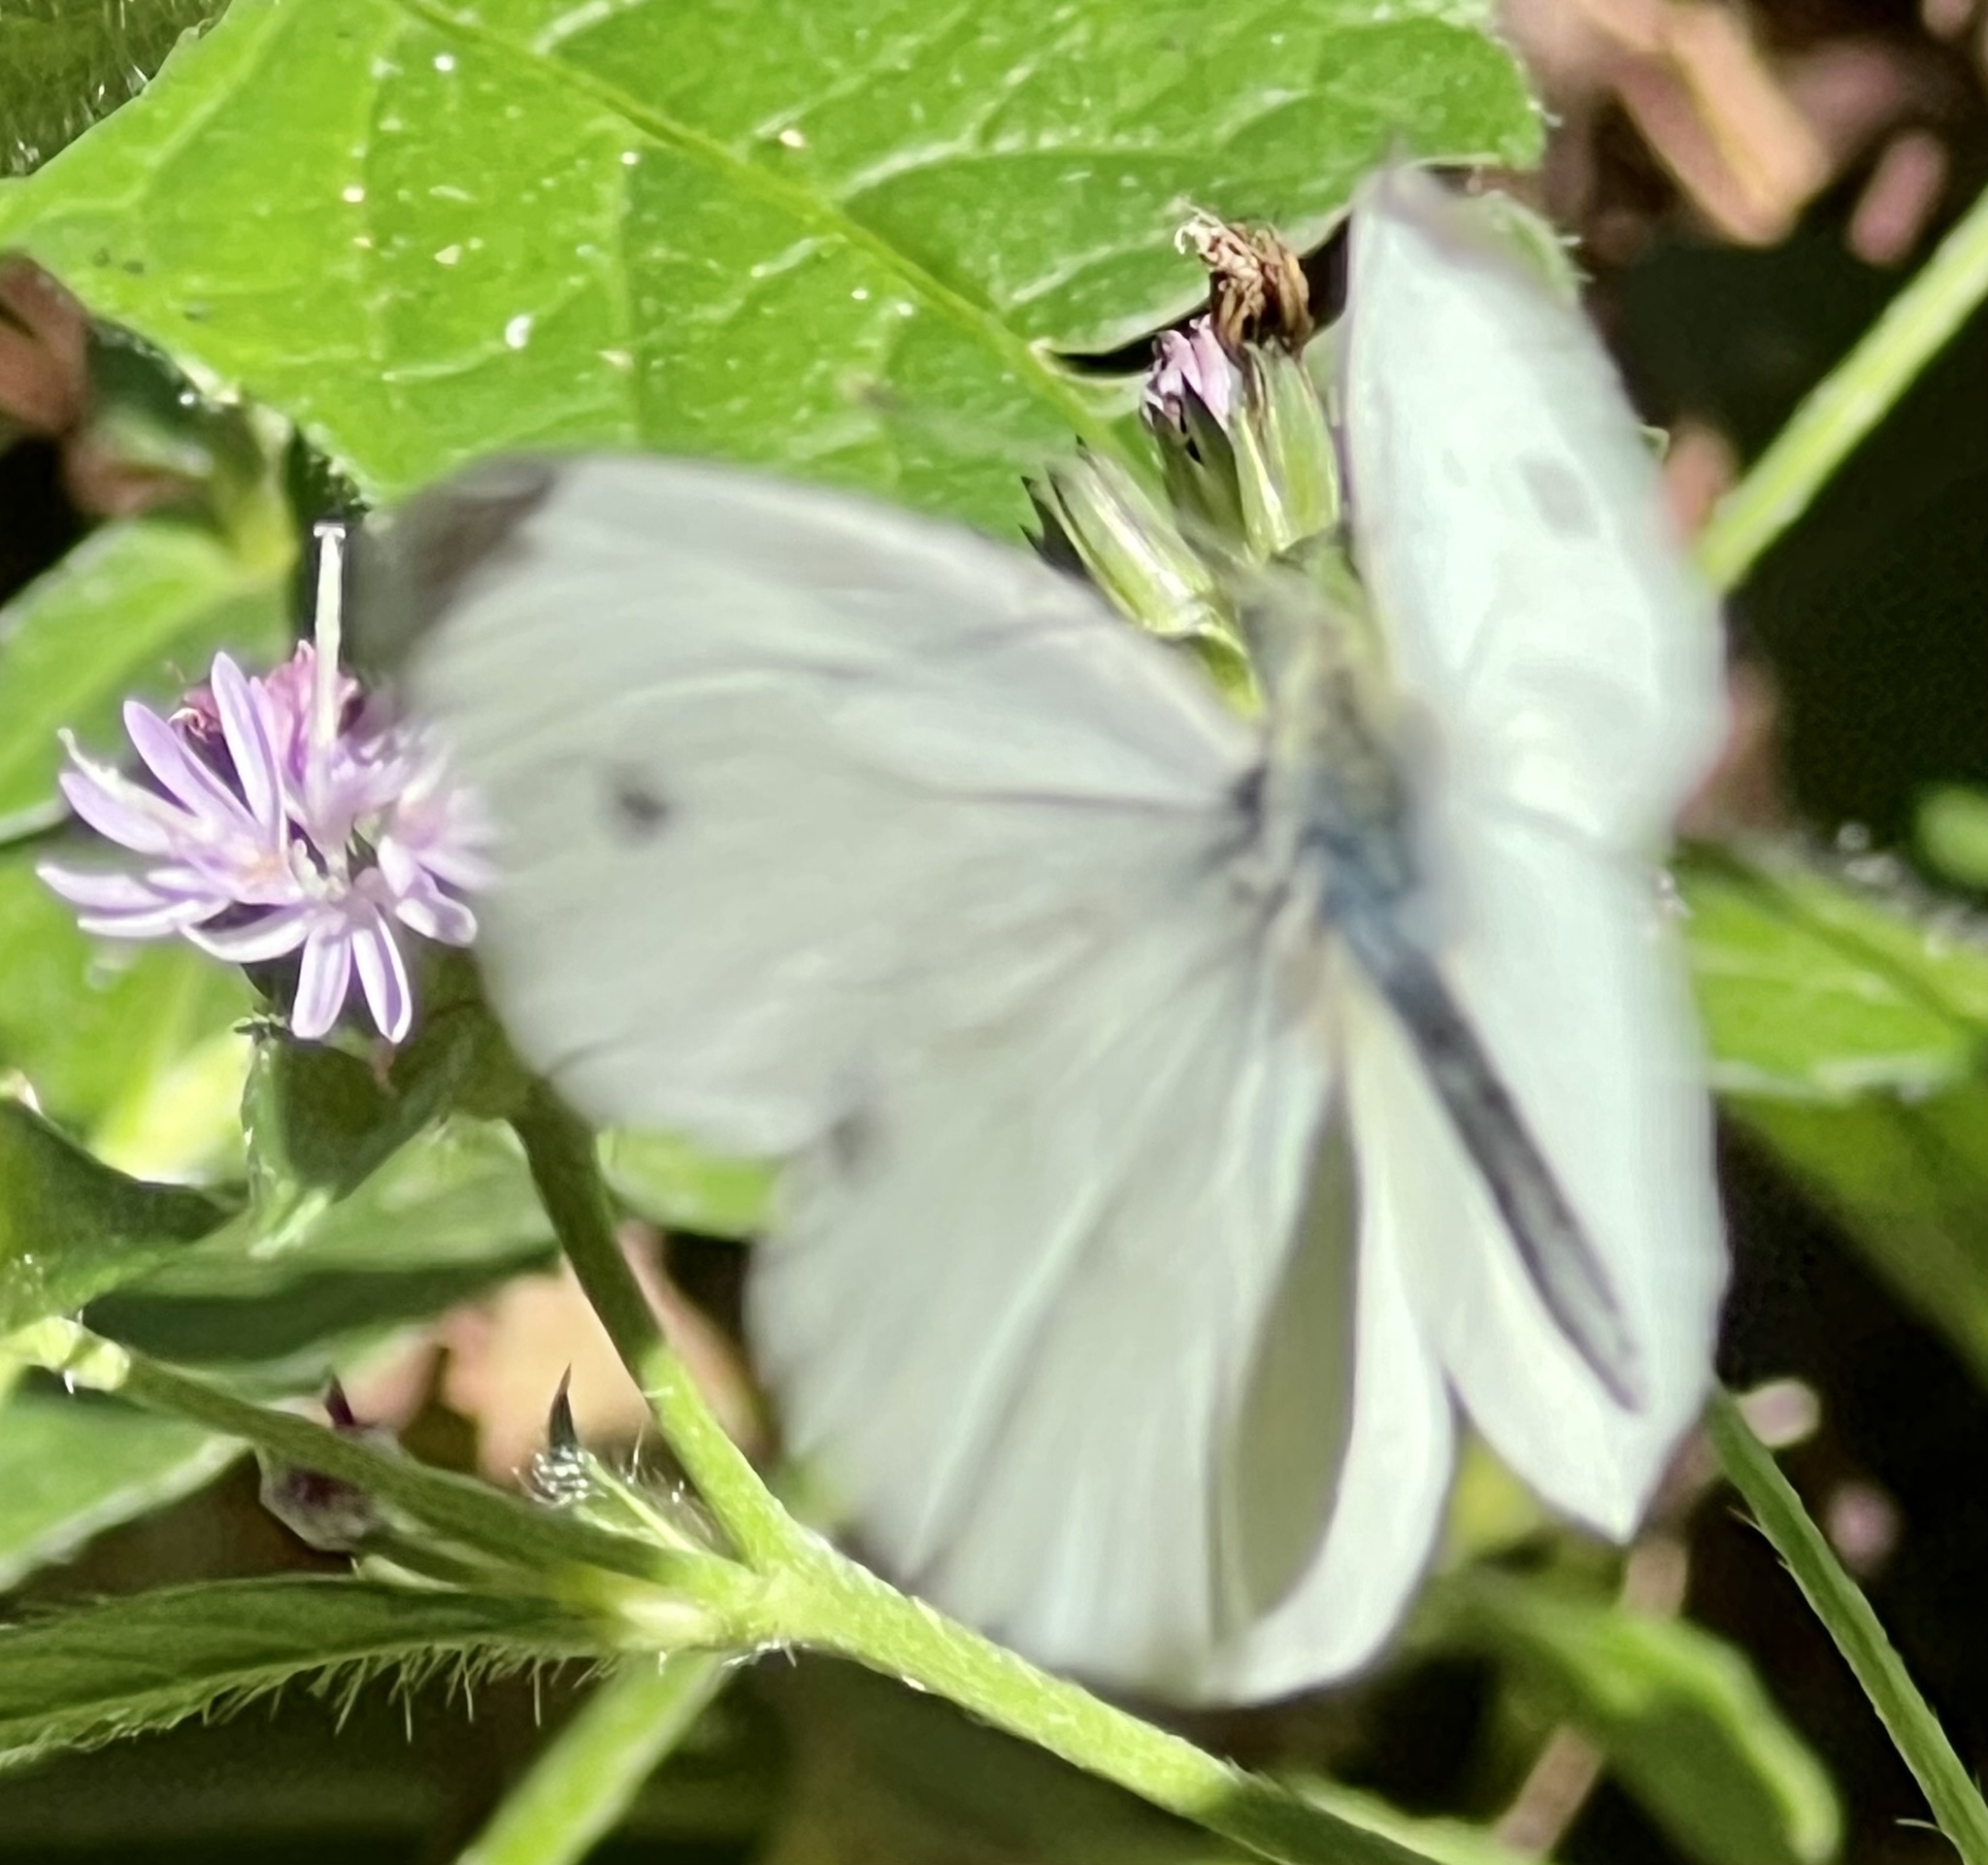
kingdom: Animalia
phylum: Arthropoda
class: Insecta
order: Lepidoptera
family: Pieridae
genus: Pieris
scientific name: Pieris rapae
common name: Small white
